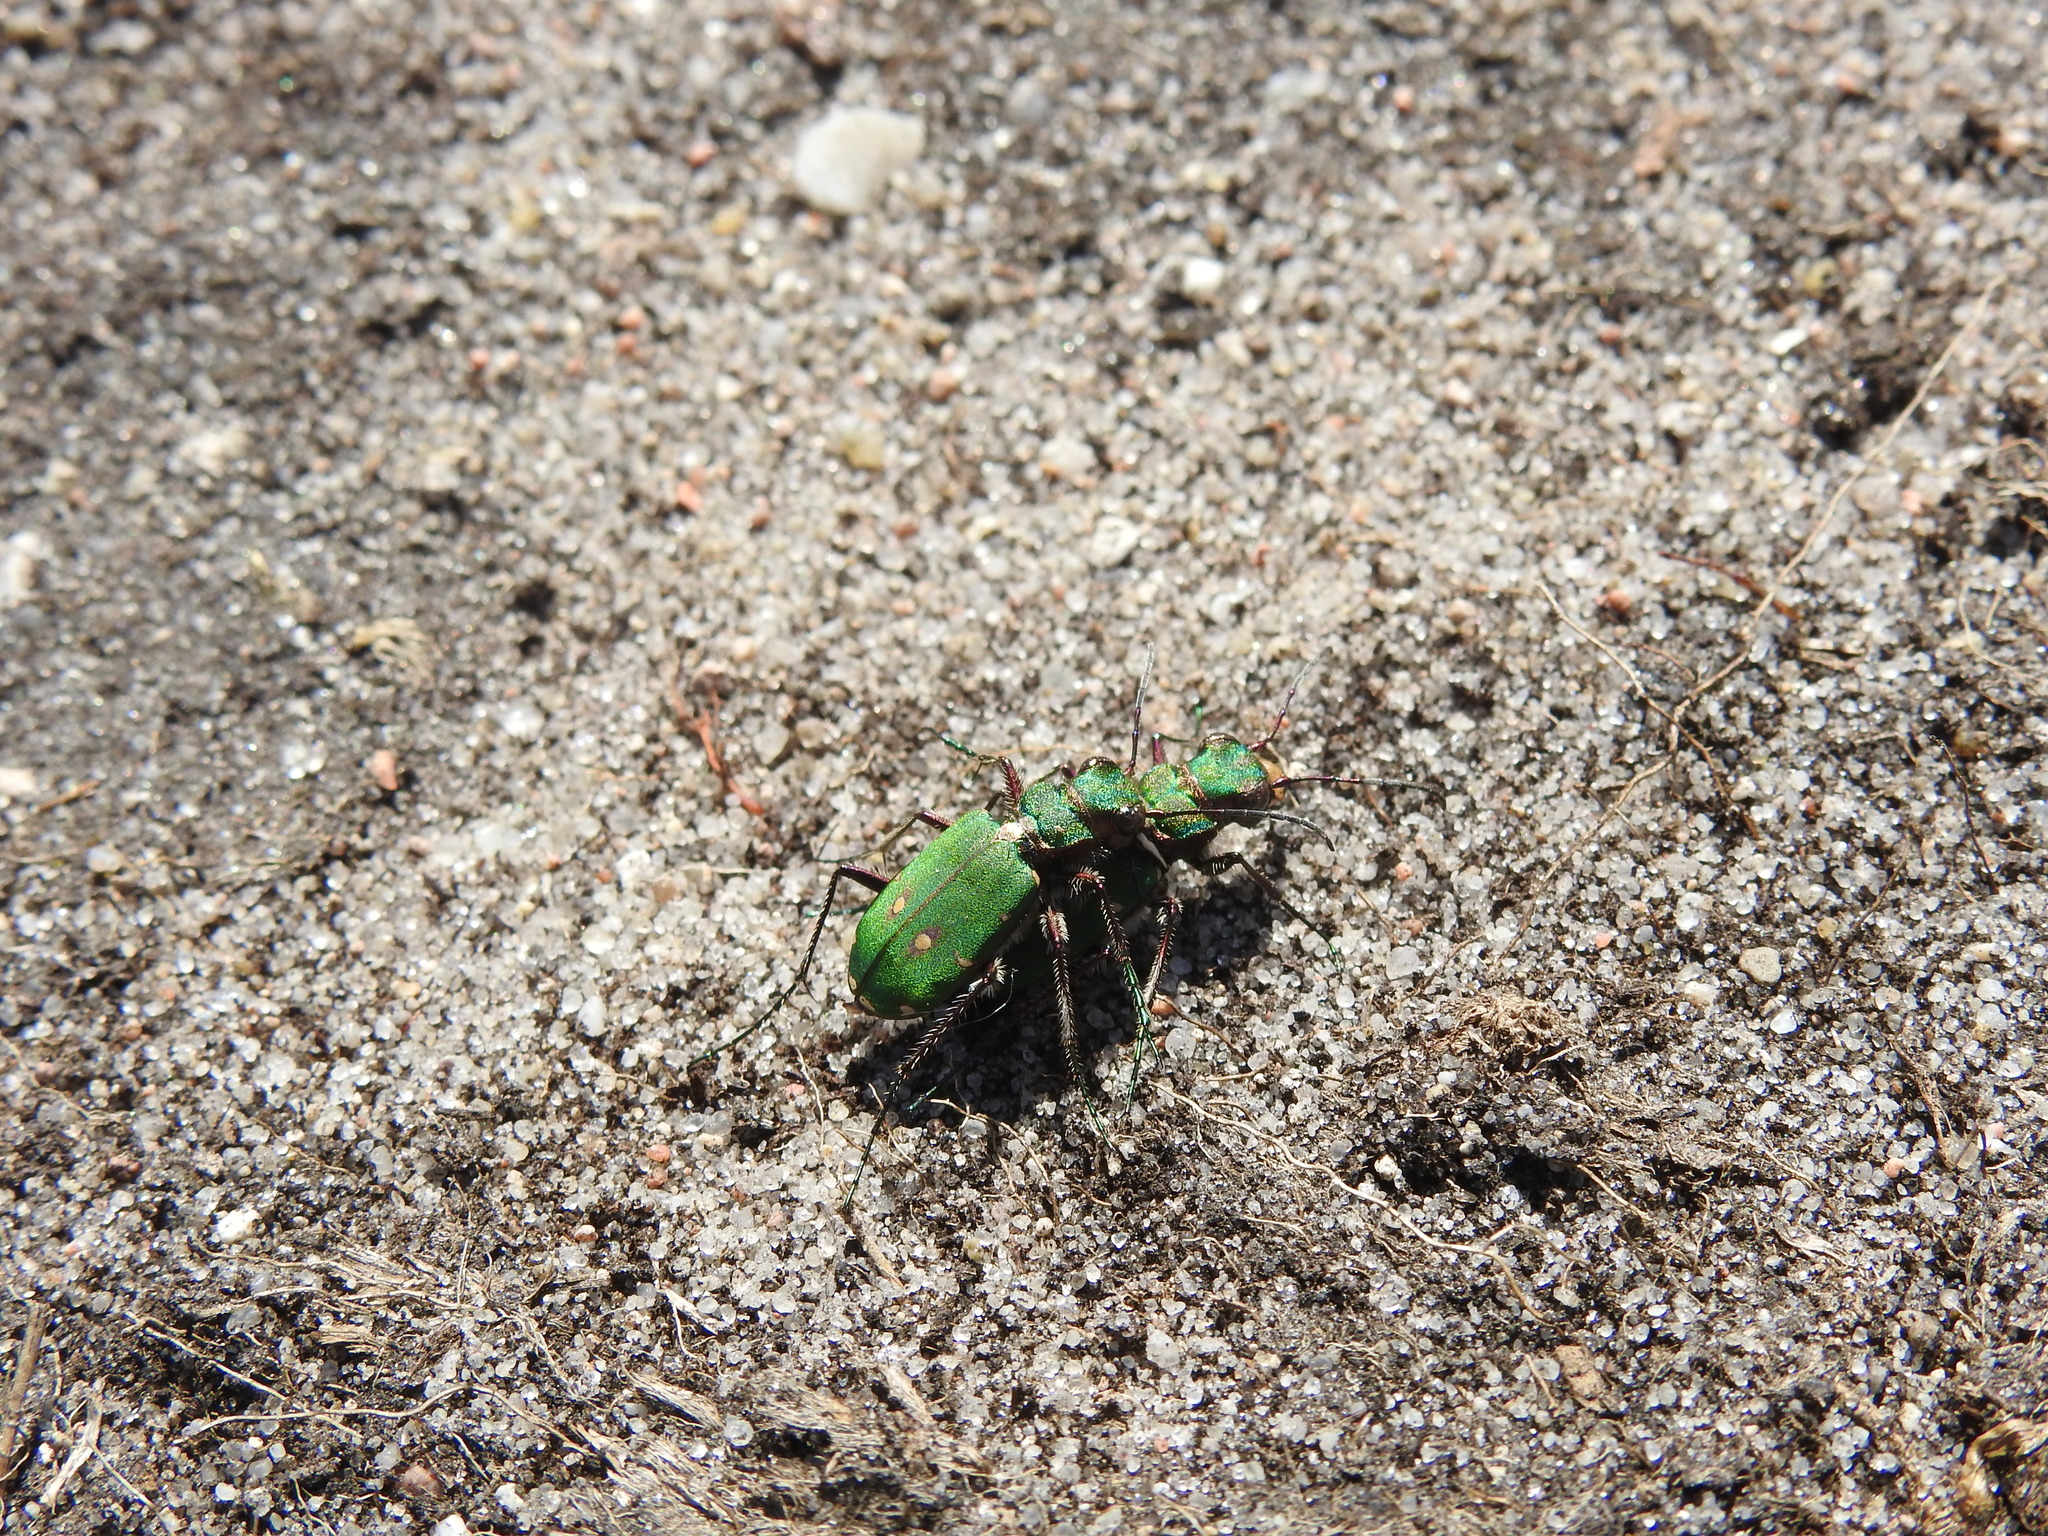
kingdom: Animalia
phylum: Arthropoda
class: Insecta
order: Coleoptera
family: Carabidae
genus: Cicindela
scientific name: Cicindela campestris
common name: Common tiger beetle
